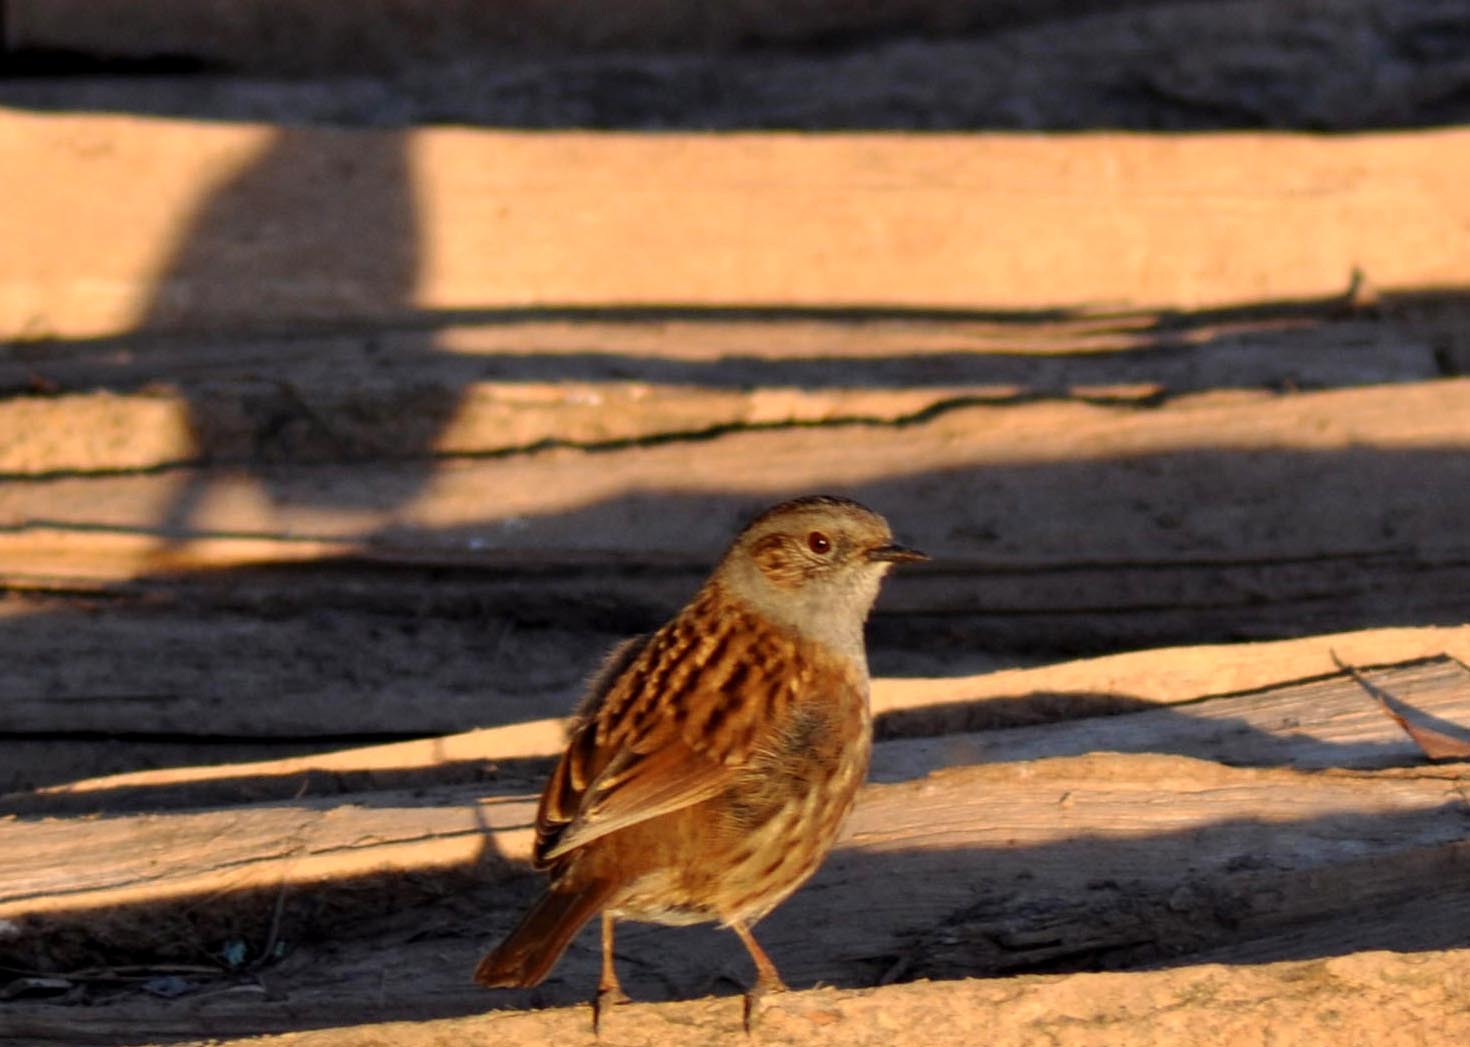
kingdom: Animalia
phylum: Chordata
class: Aves
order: Passeriformes
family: Prunellidae
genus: Prunella
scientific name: Prunella modularis
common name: Dunnock
